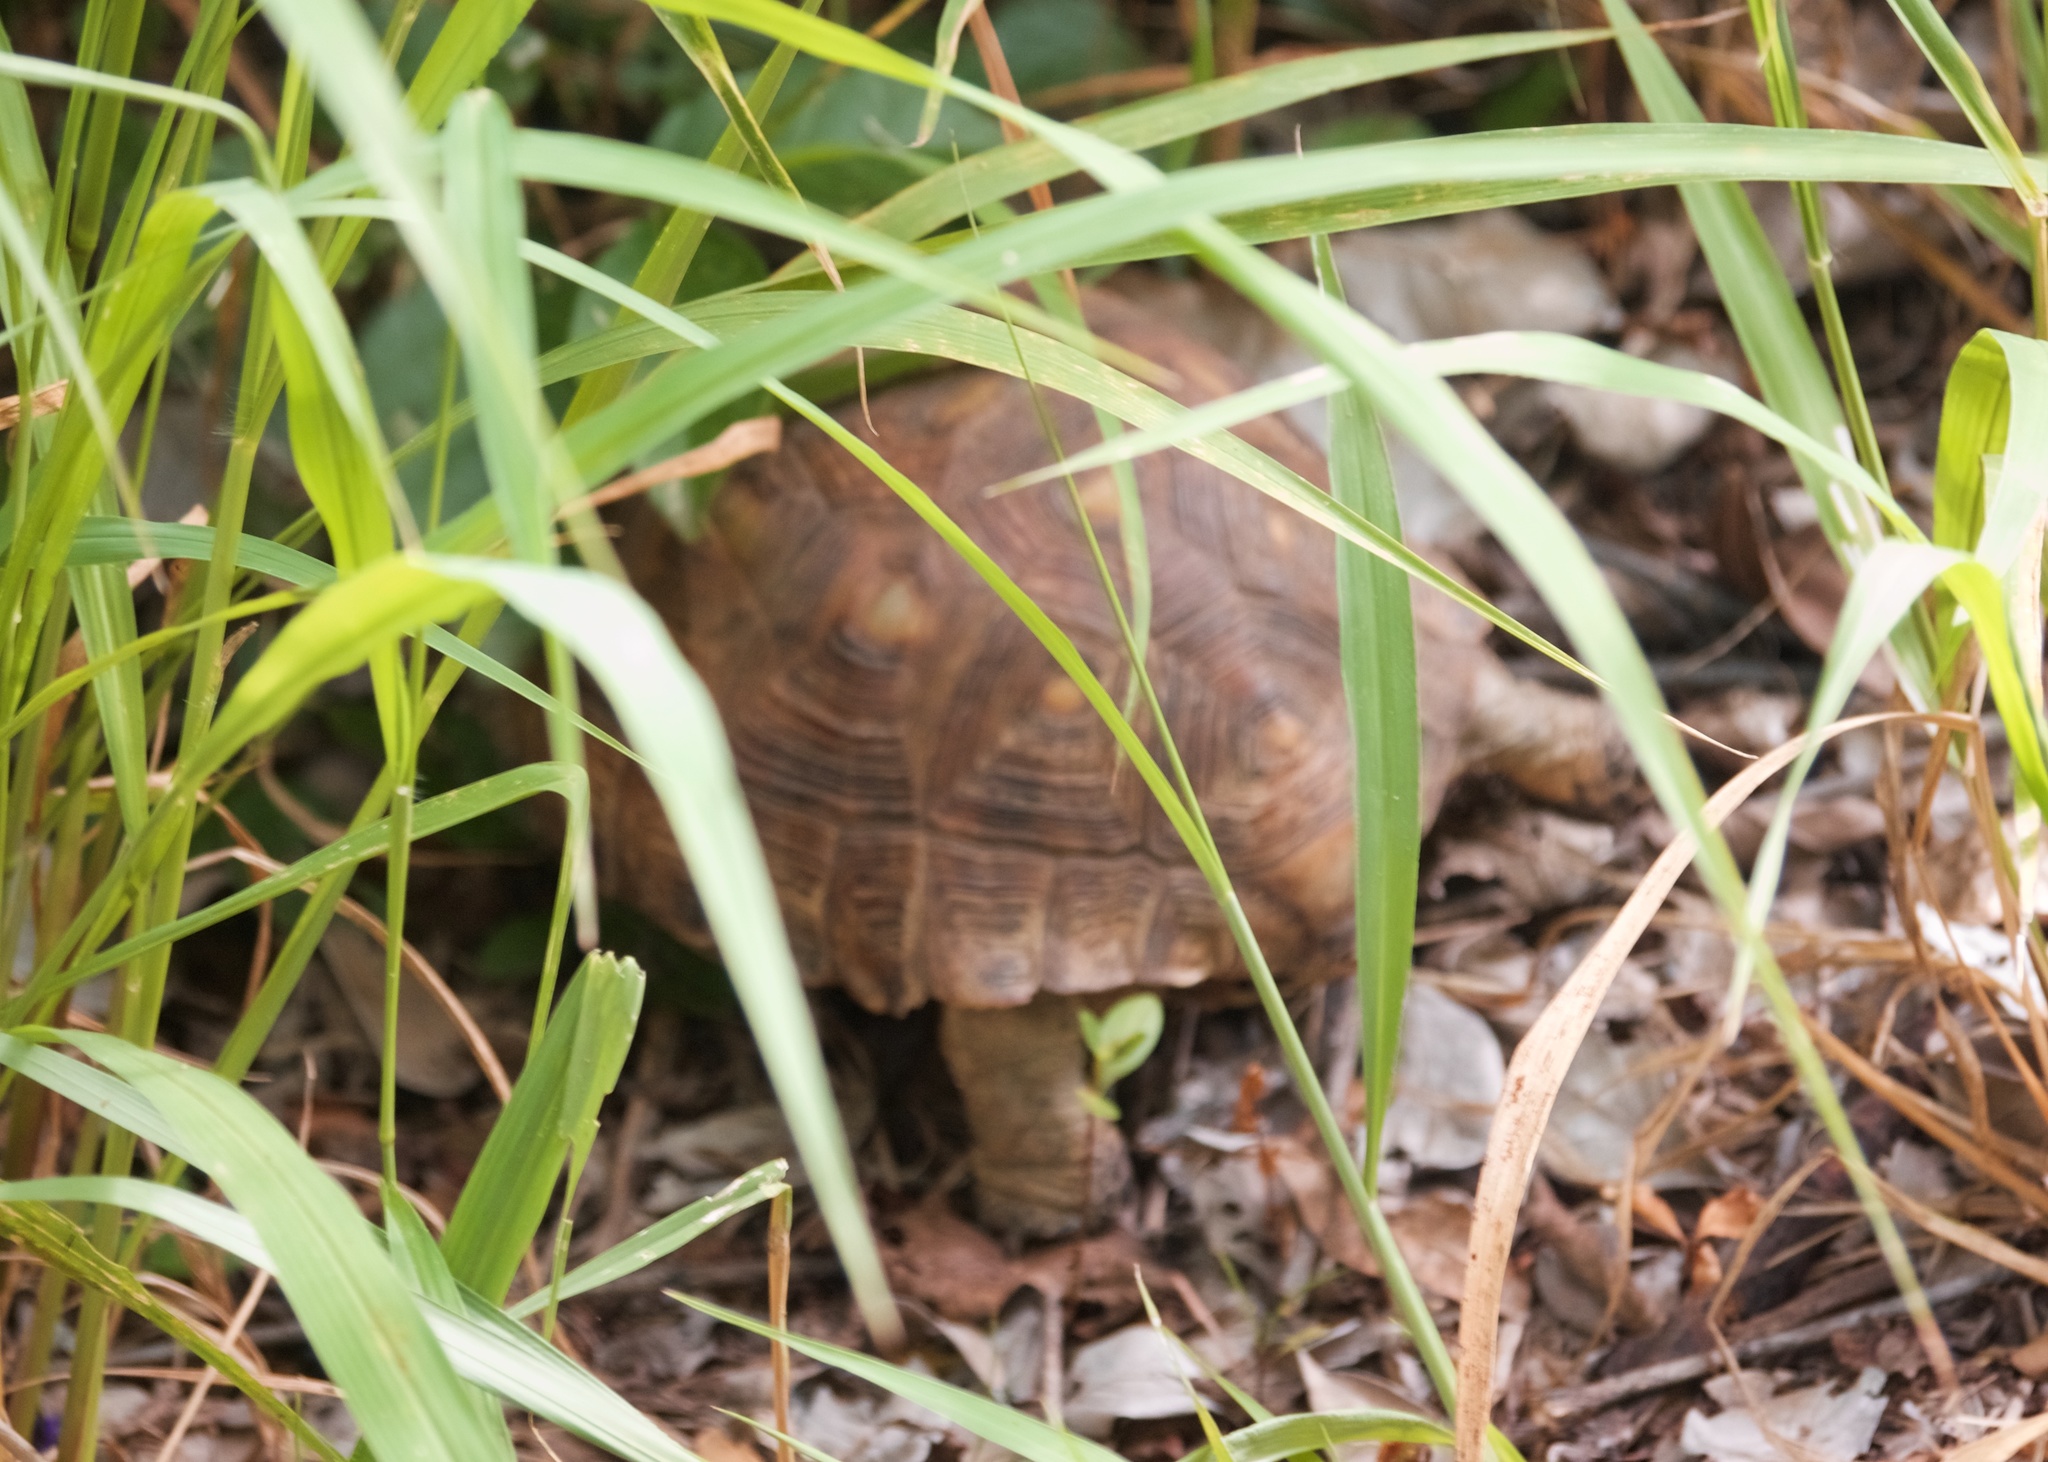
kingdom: Animalia
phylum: Chordata
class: Testudines
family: Testudinidae
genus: Gopherus
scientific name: Gopherus berlandieri
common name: Texas (gopher )tortoise
